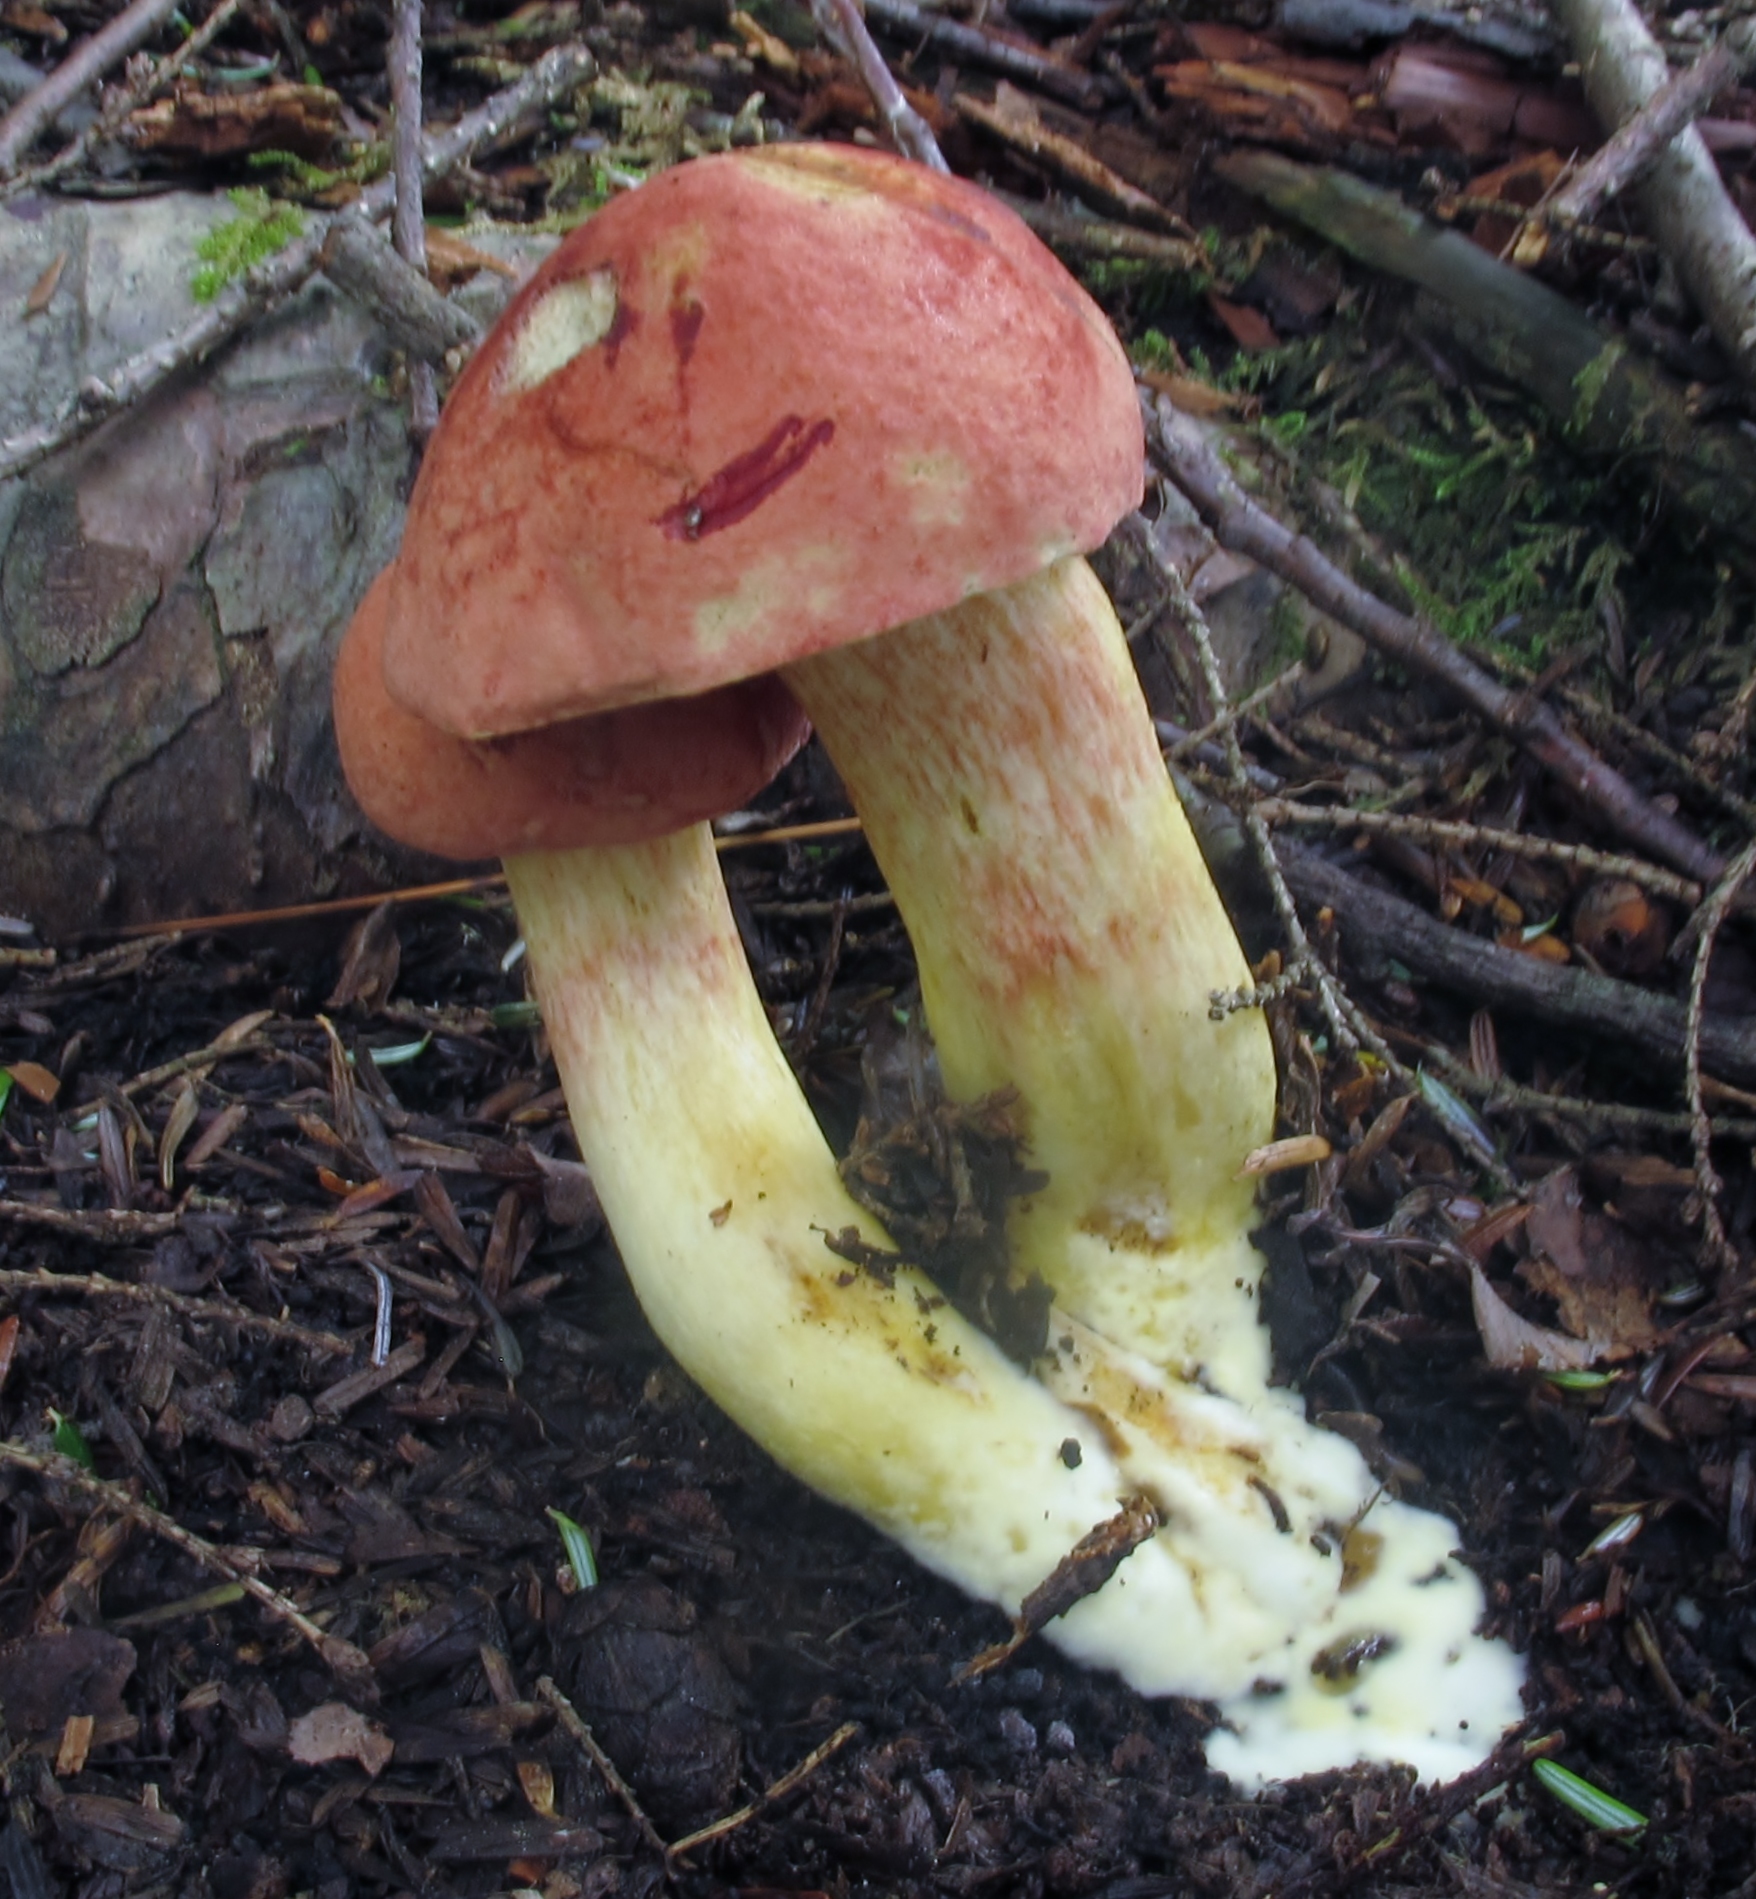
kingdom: Fungi
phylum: Basidiomycota
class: Agaricomycetes
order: Boletales
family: Boletaceae
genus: Boletus
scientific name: Boletus
